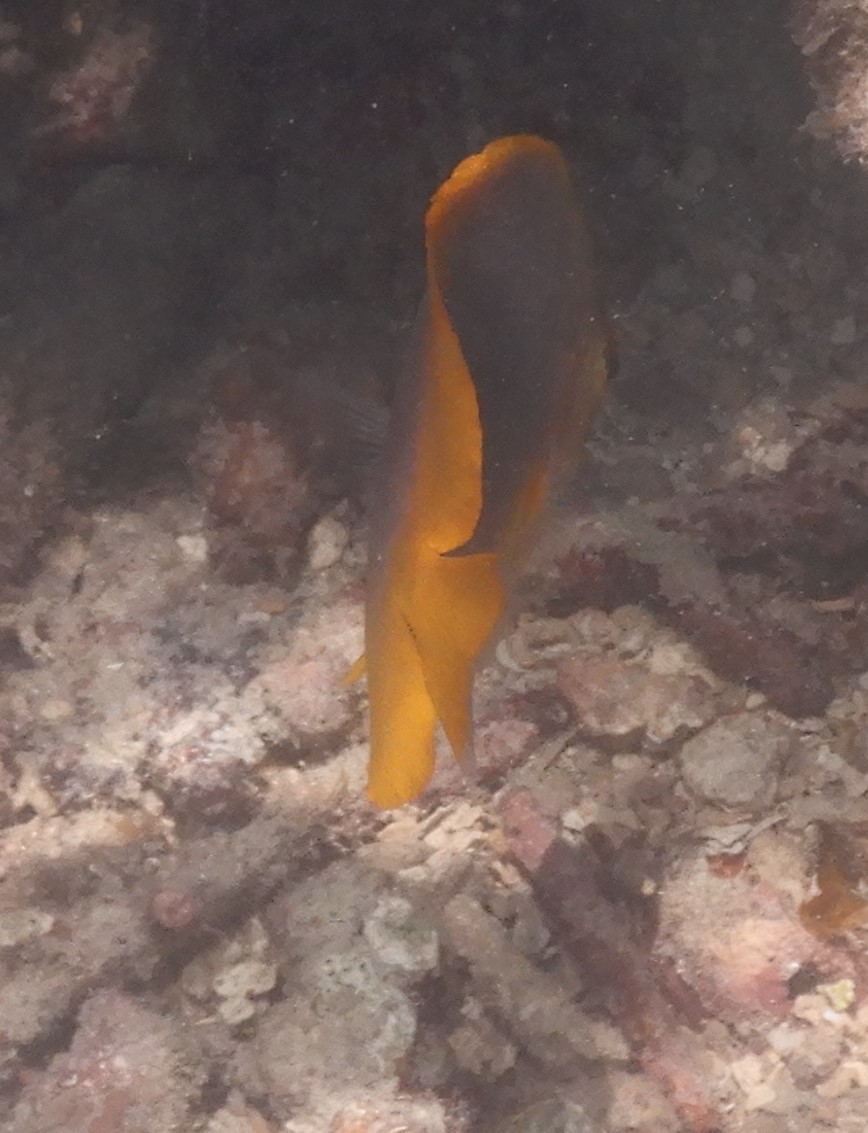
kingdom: Animalia
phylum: Chordata
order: Perciformes
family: Chaetodontidae
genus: Chaetodon
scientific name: Chaetodon aureofasciatus
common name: Golden butterflyfish
